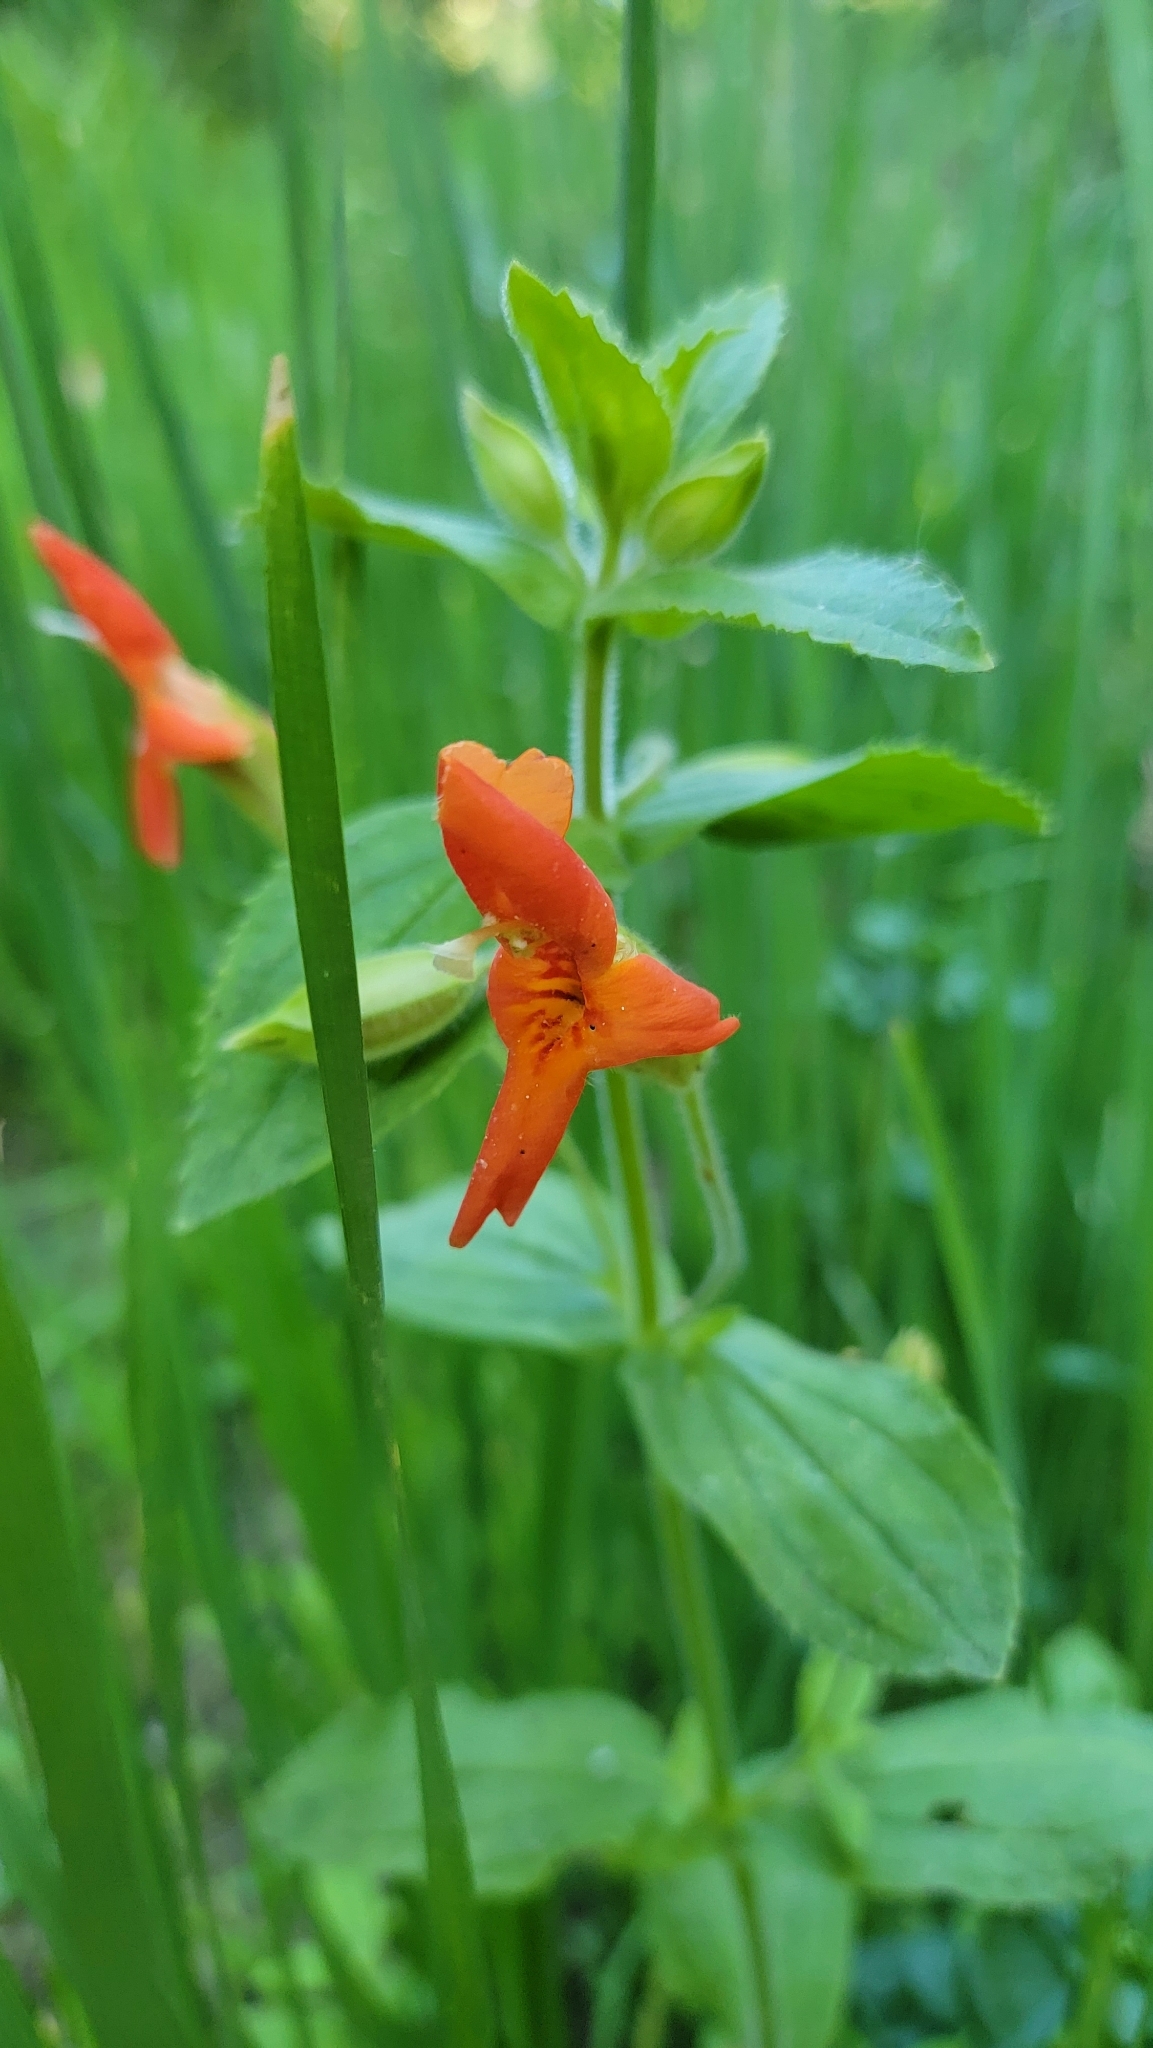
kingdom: Plantae
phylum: Tracheophyta
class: Magnoliopsida
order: Lamiales
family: Phrymaceae
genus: Erythranthe
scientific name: Erythranthe cardinalis
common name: Scarlet monkey-flower
